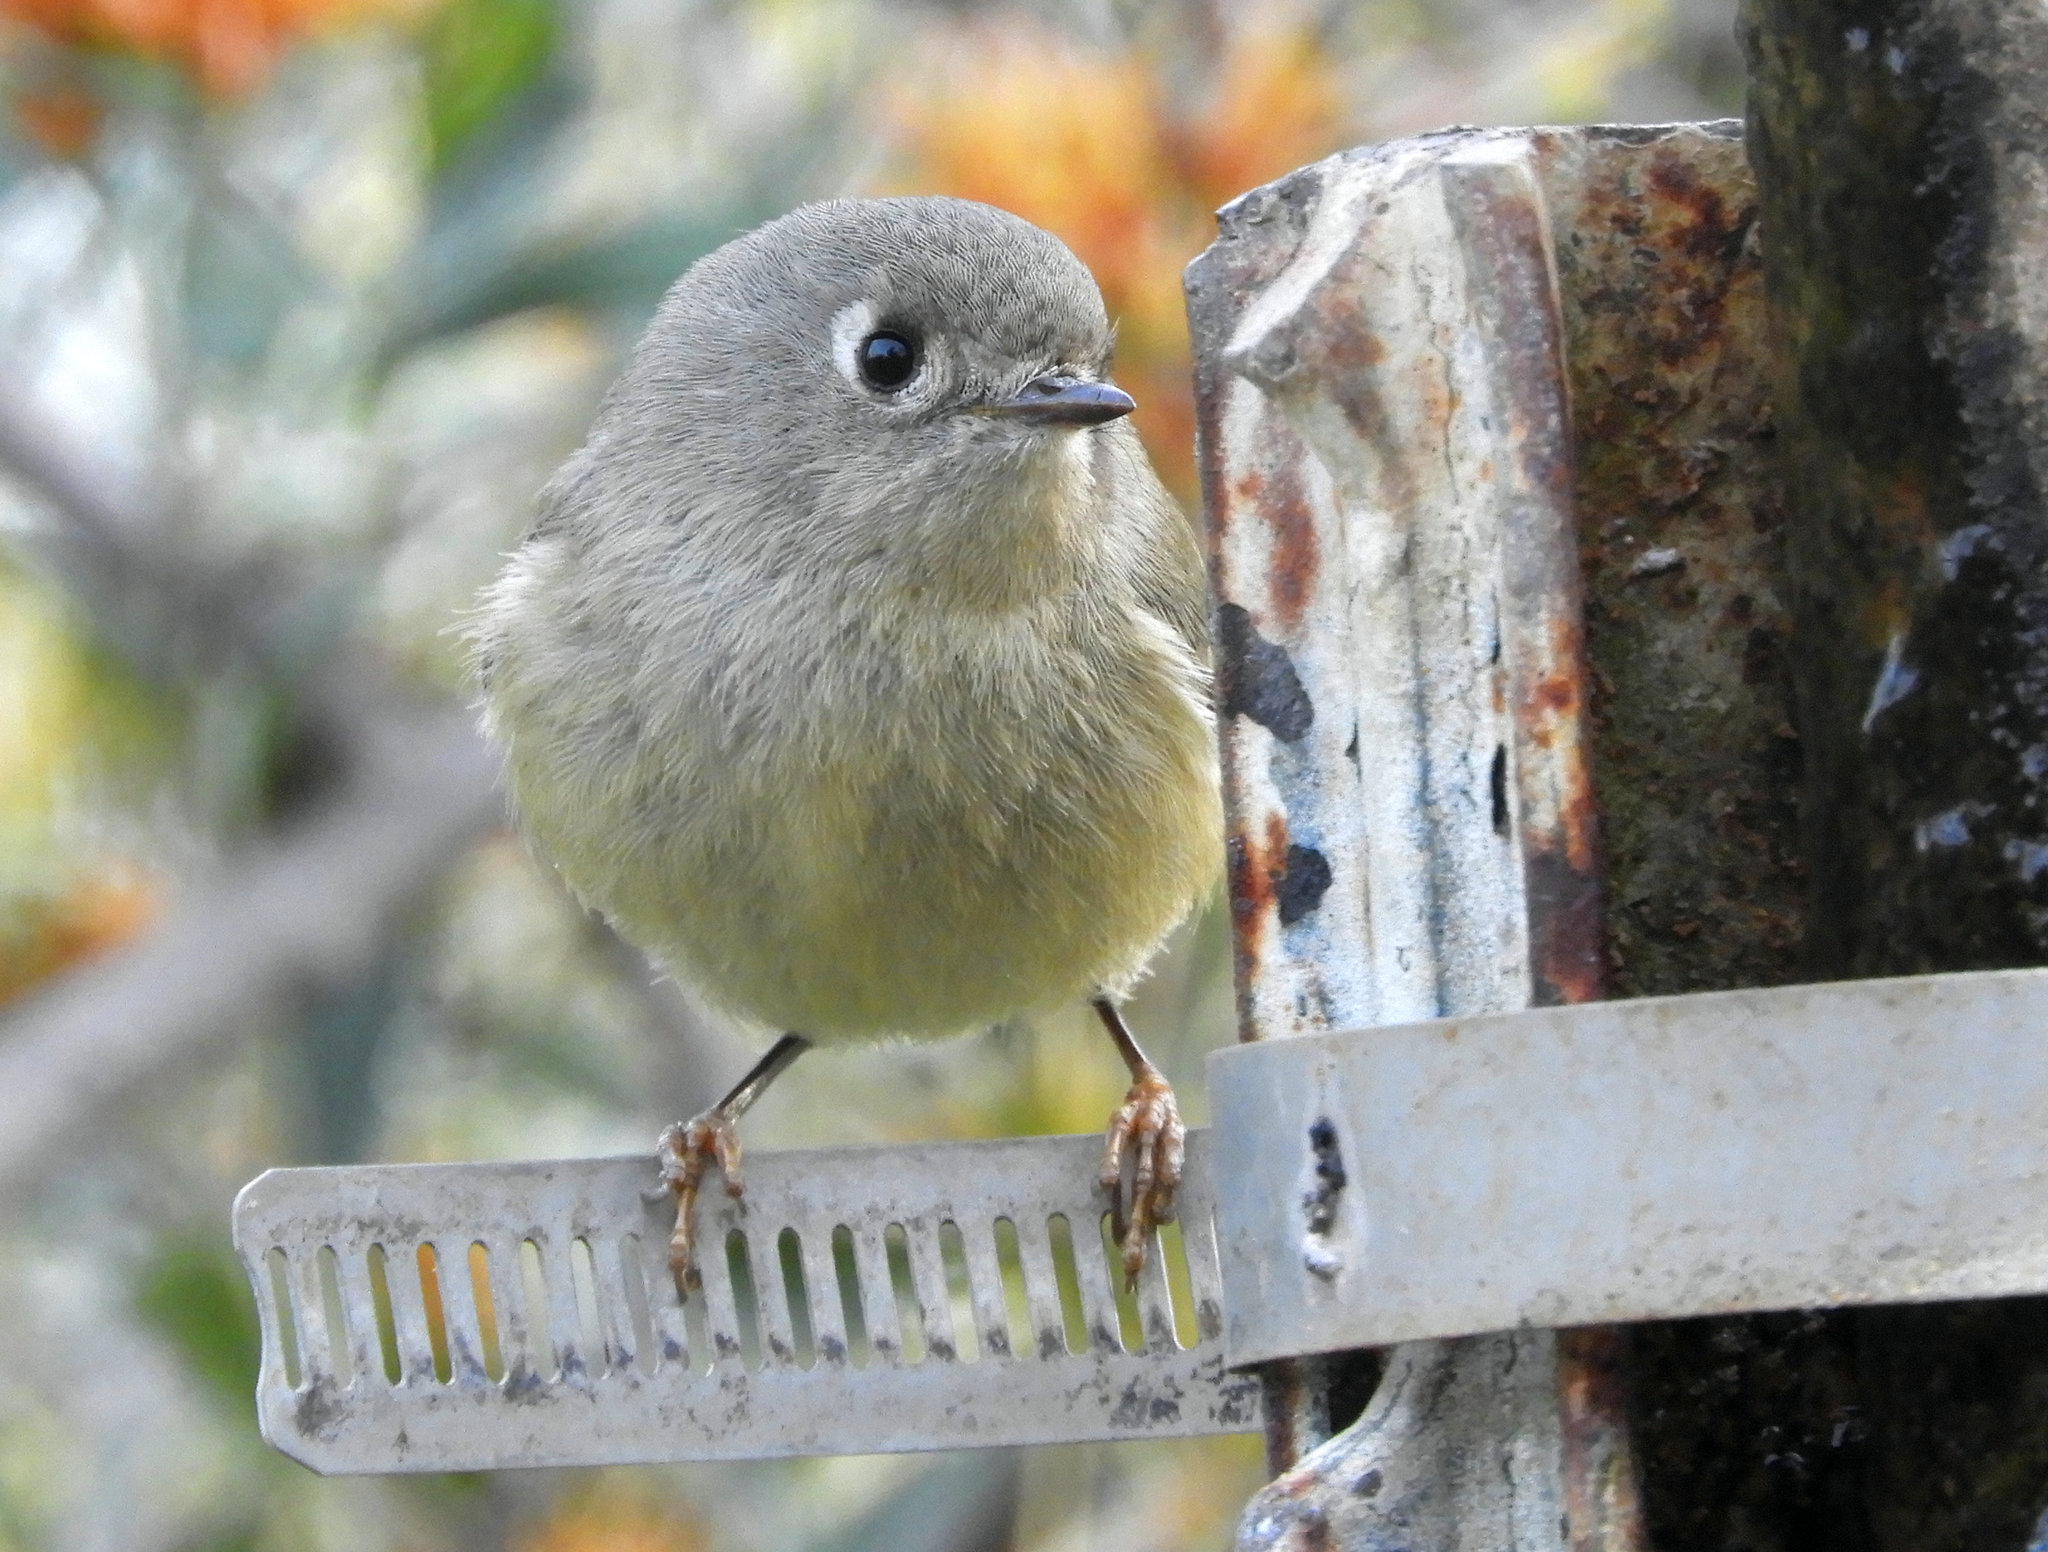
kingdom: Animalia
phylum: Chordata
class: Aves
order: Passeriformes
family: Regulidae
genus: Regulus
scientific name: Regulus calendula
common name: Ruby-crowned kinglet
